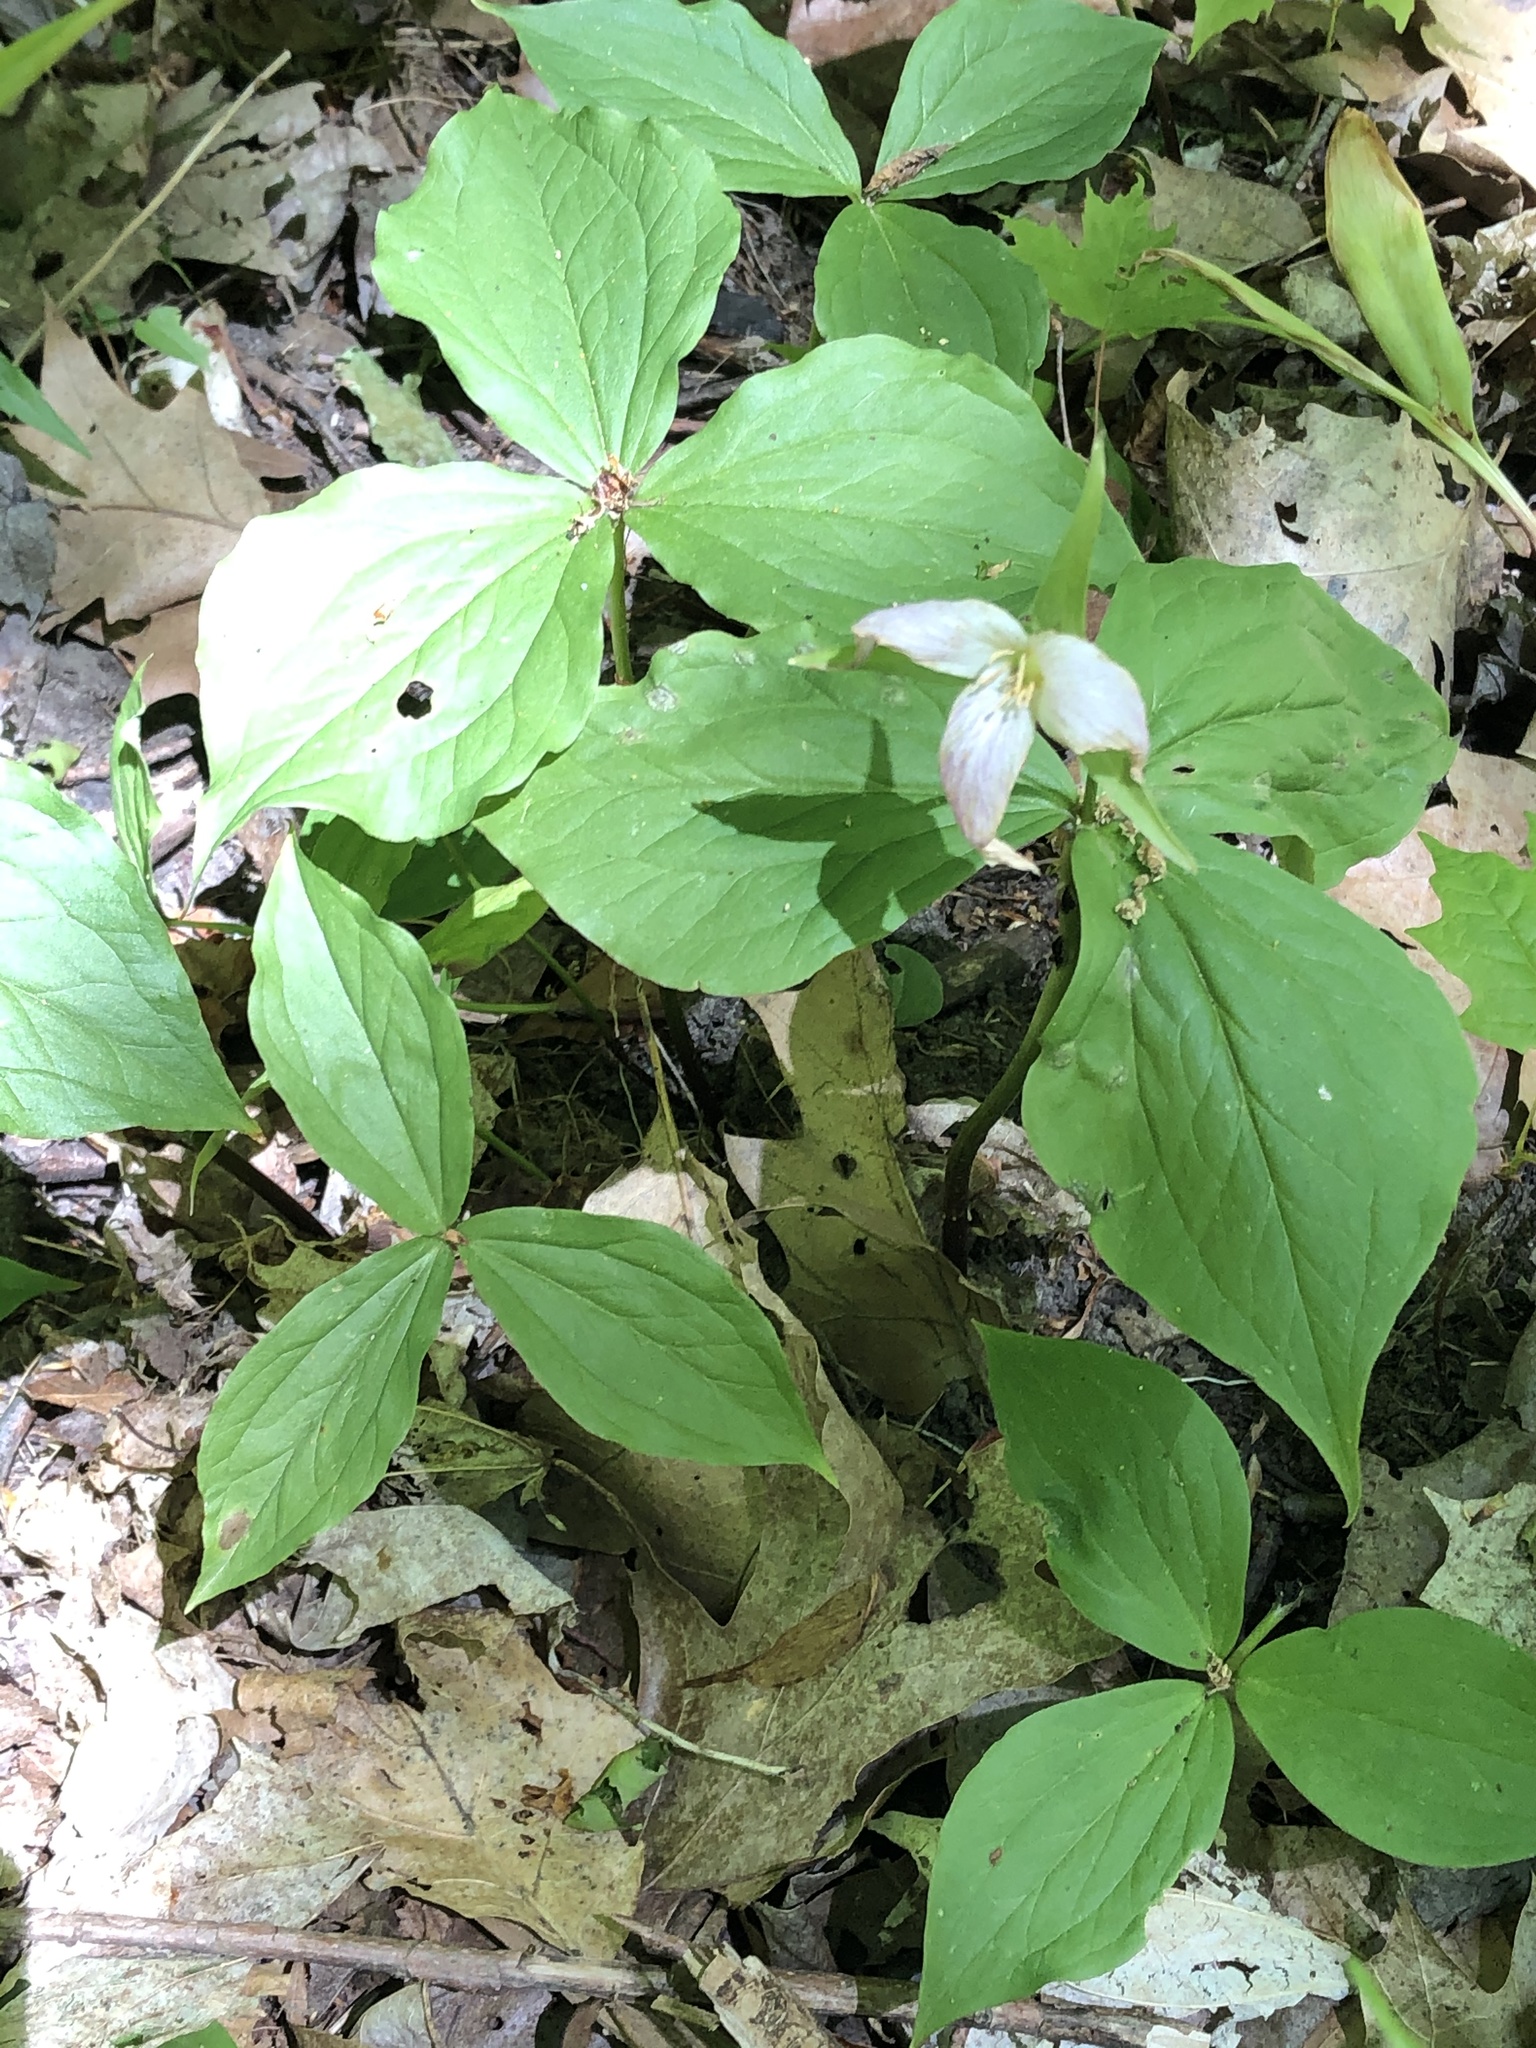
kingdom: Plantae
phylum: Tracheophyta
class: Liliopsida
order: Liliales
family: Melanthiaceae
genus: Trillium
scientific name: Trillium grandiflorum
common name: Great white trillium
